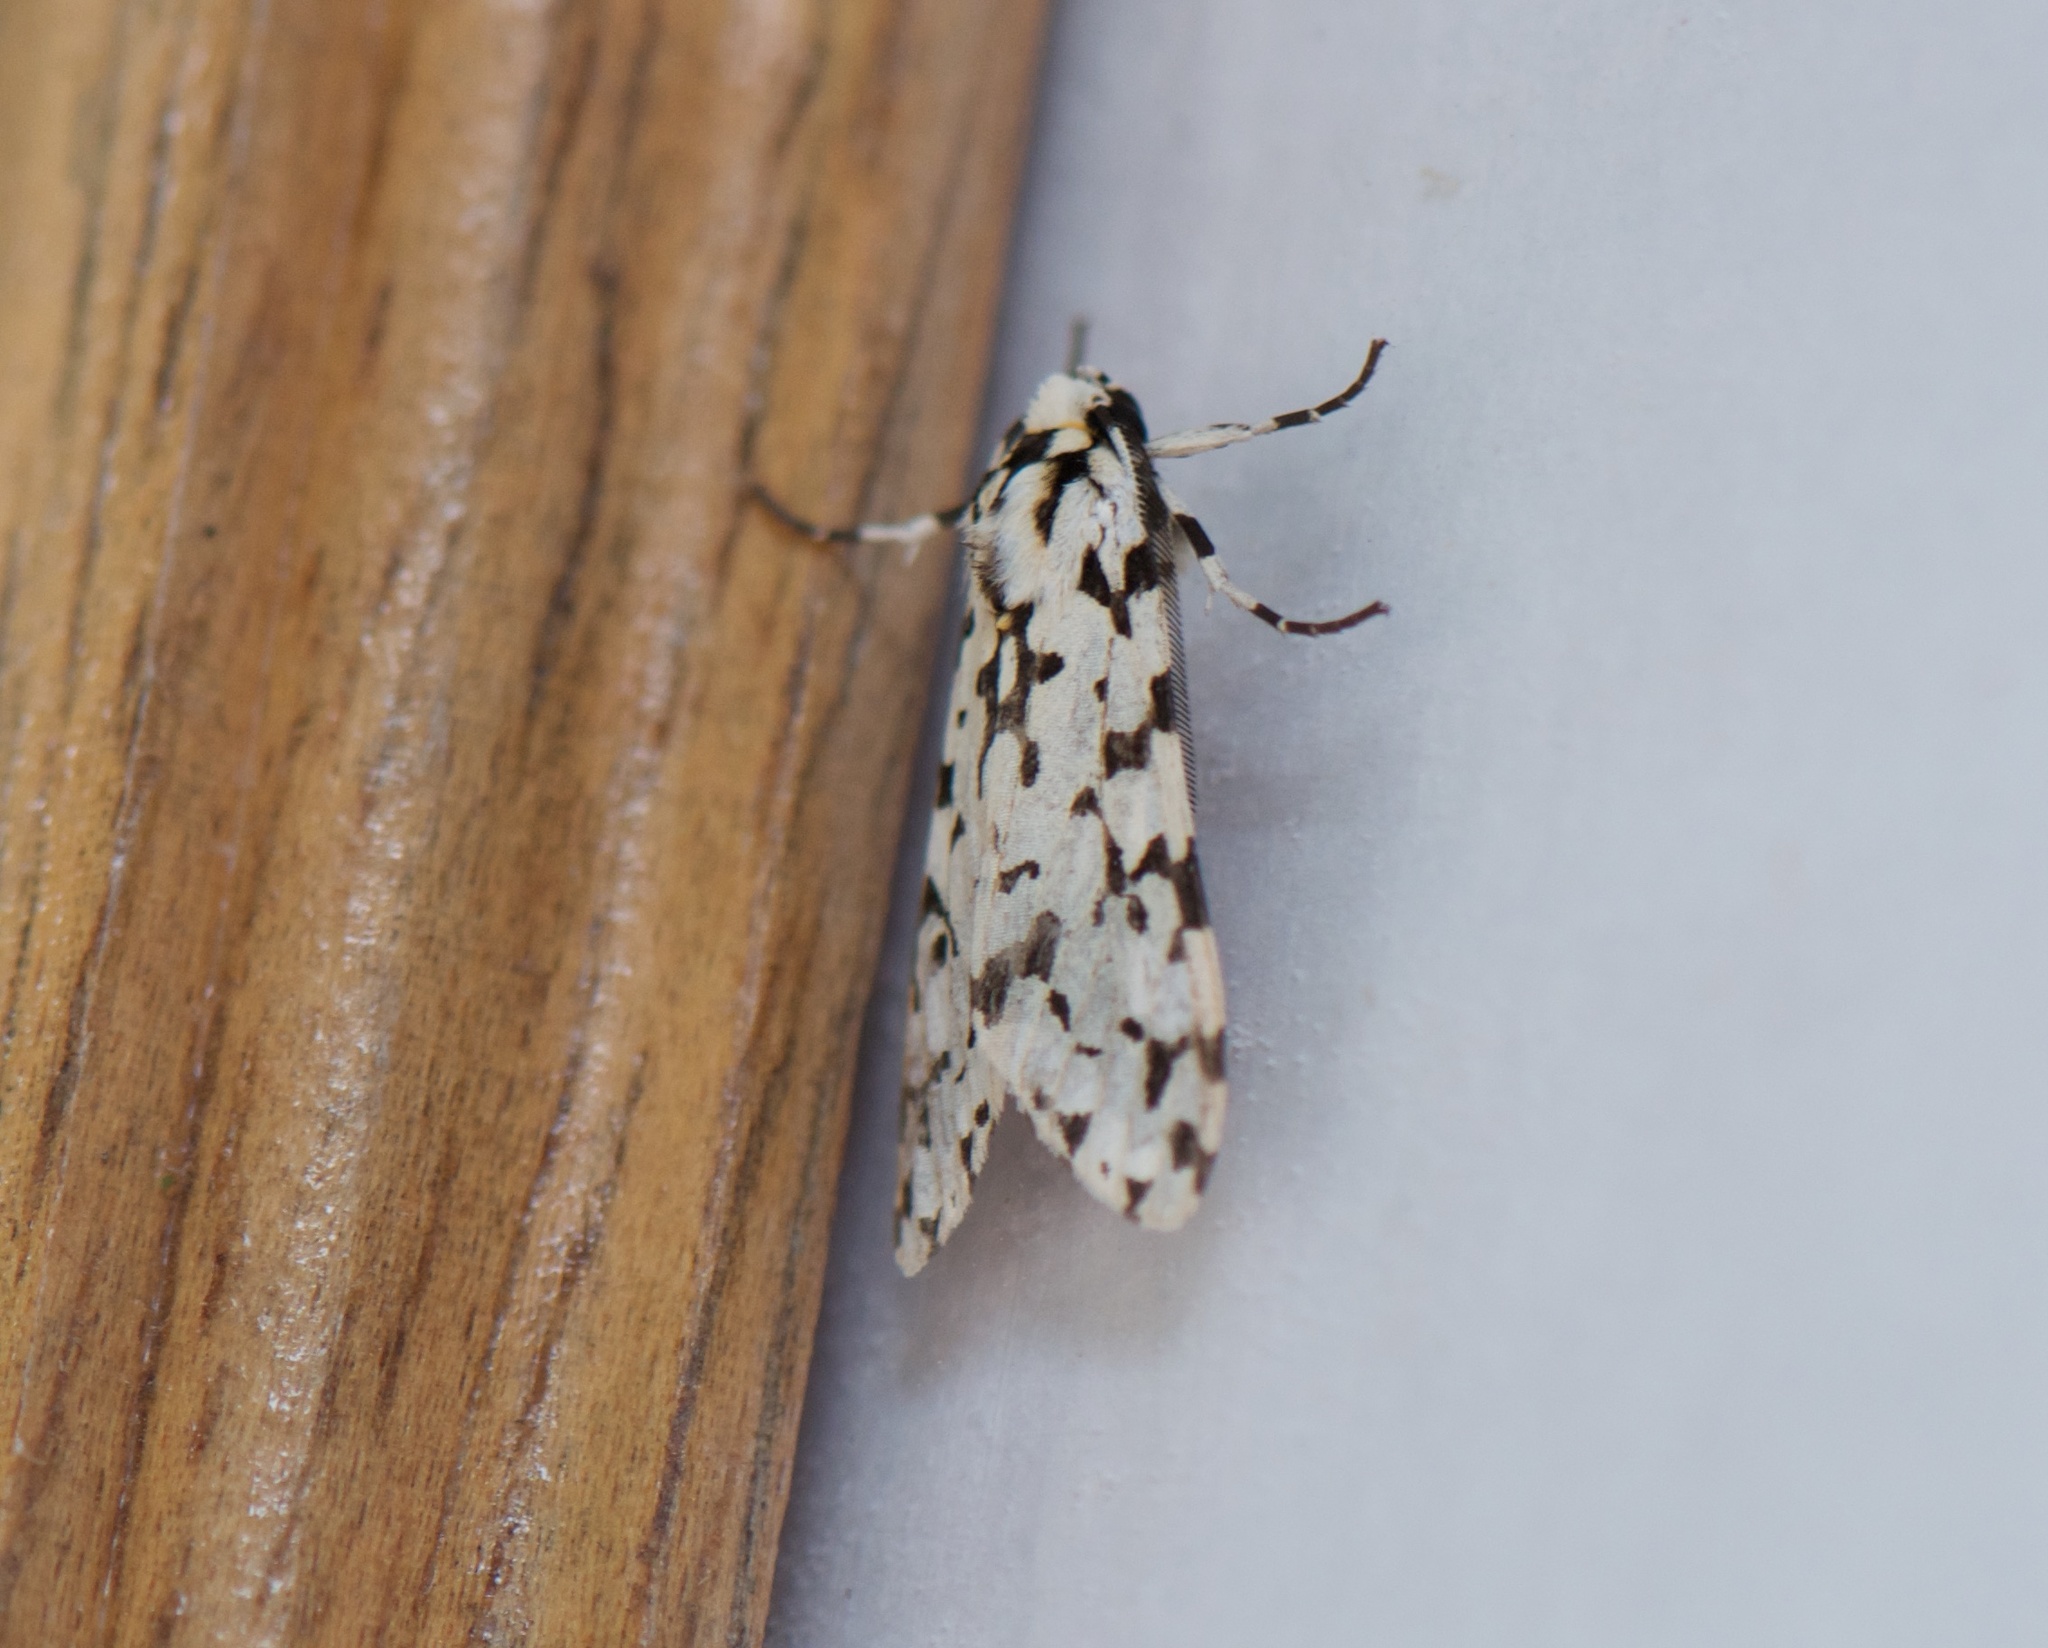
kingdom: Animalia
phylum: Arthropoda
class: Insecta
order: Lepidoptera
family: Erebidae
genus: Eucereon
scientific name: Eucereon tigrata
